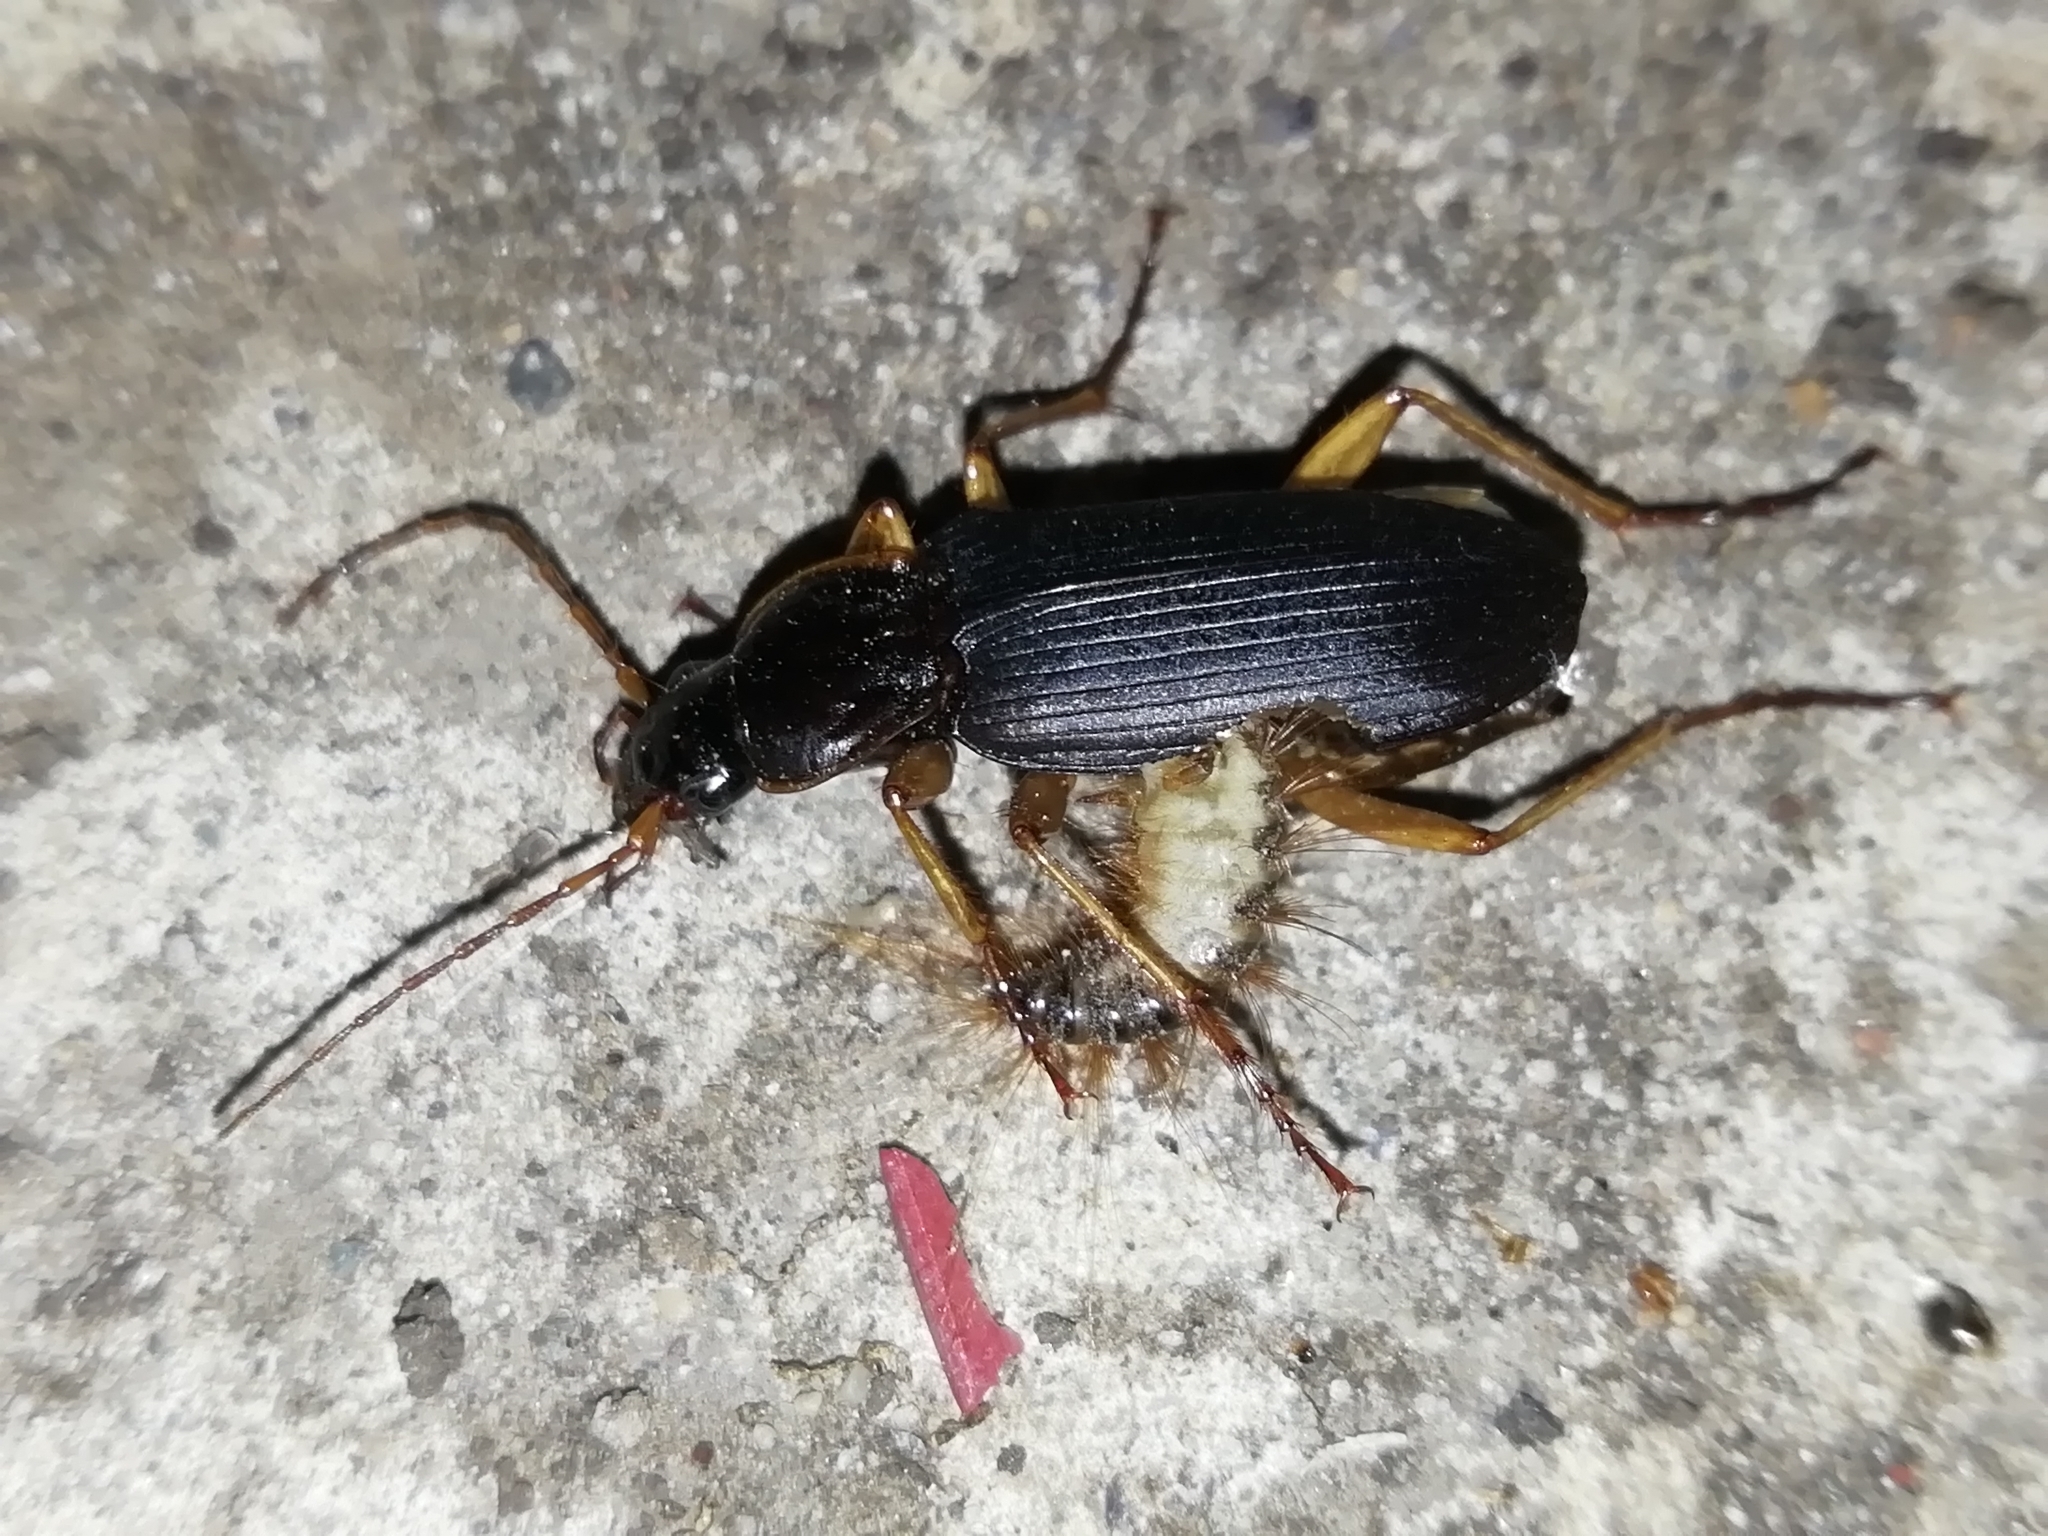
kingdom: Animalia
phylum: Arthropoda
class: Insecta
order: Coleoptera
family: Carabidae
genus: Dolichus
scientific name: Dolichus halensis
